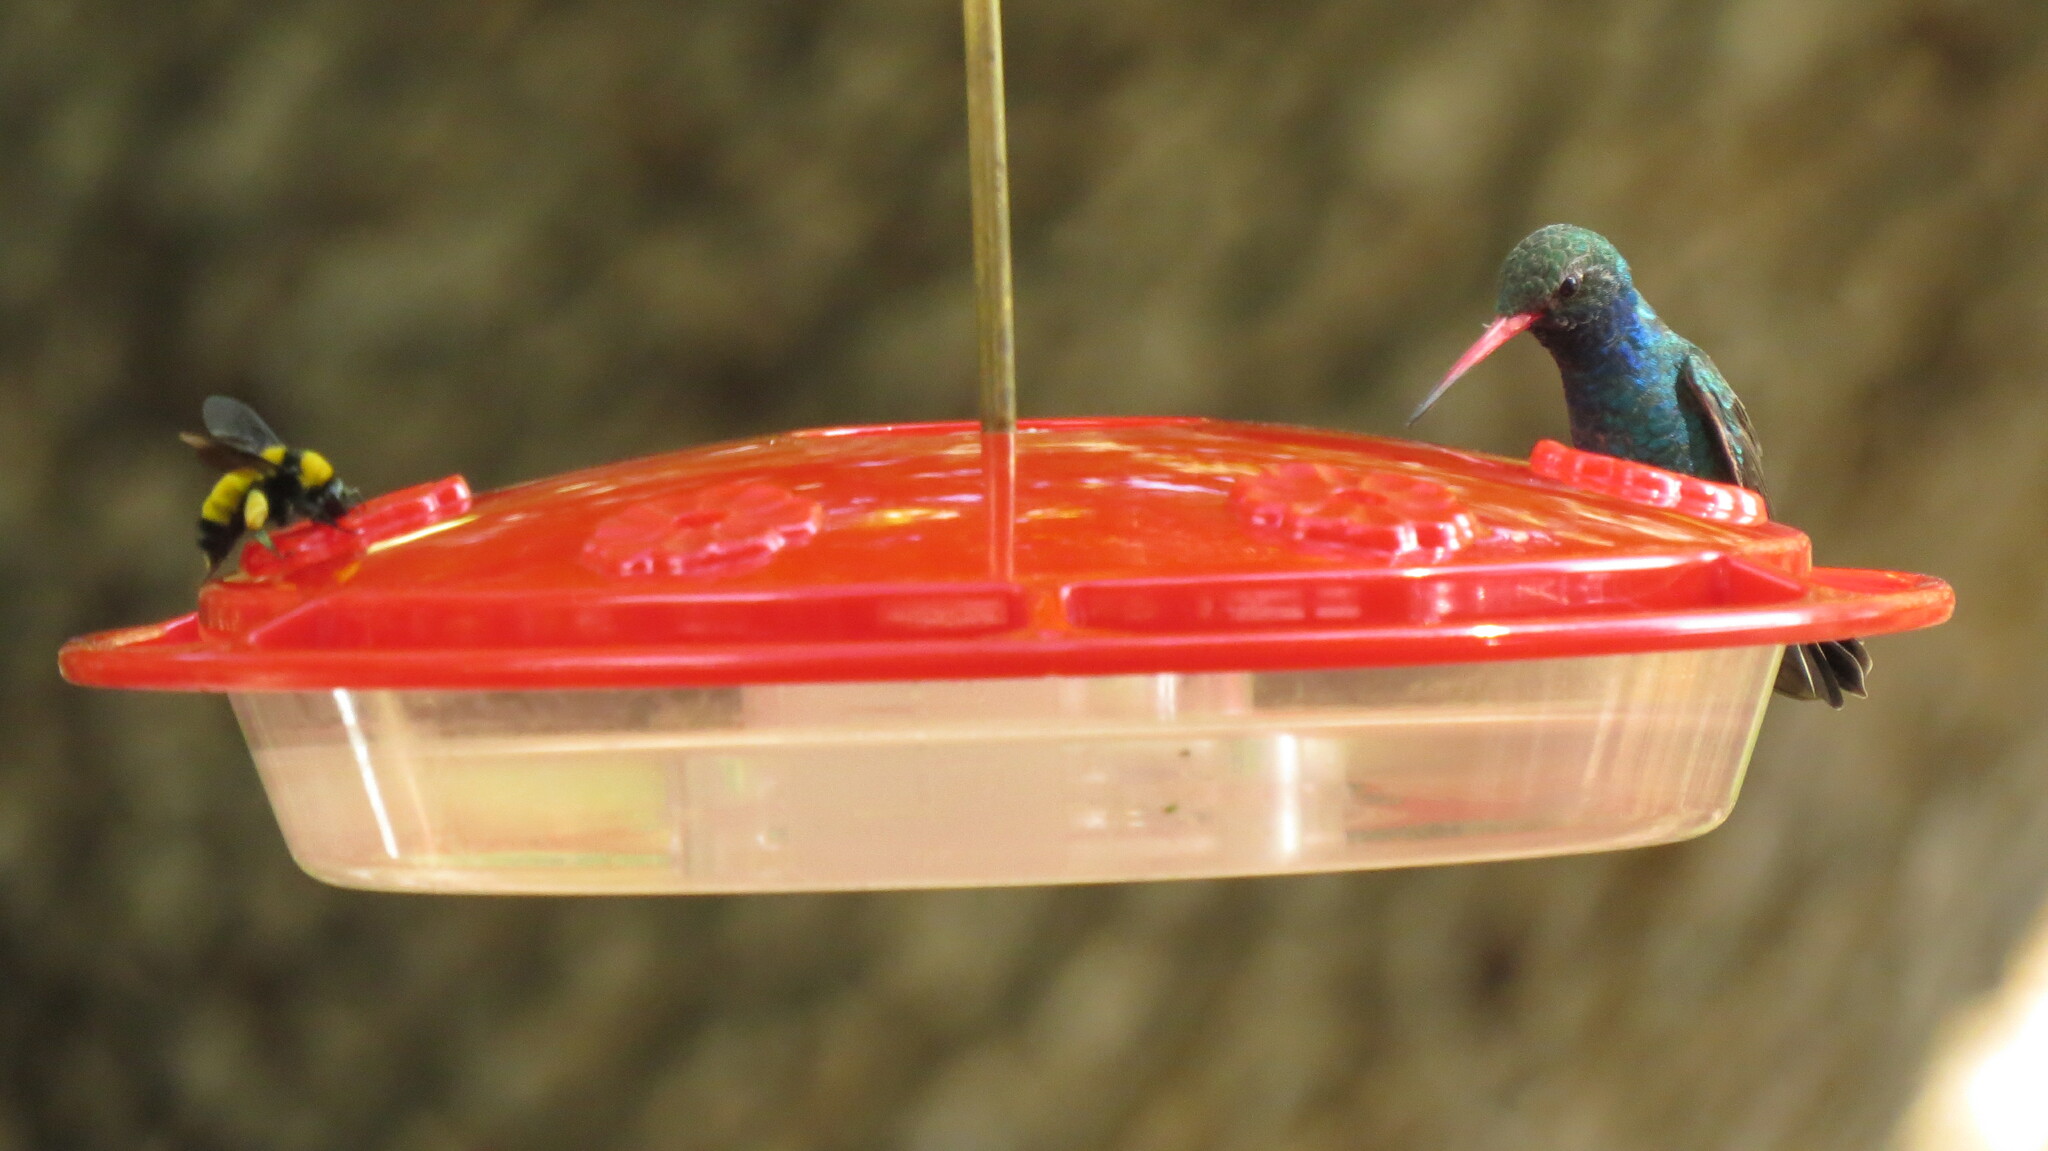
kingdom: Animalia
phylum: Arthropoda
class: Insecta
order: Hymenoptera
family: Apidae
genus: Bombus
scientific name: Bombus sonorus
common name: Sonoran bumble bee
